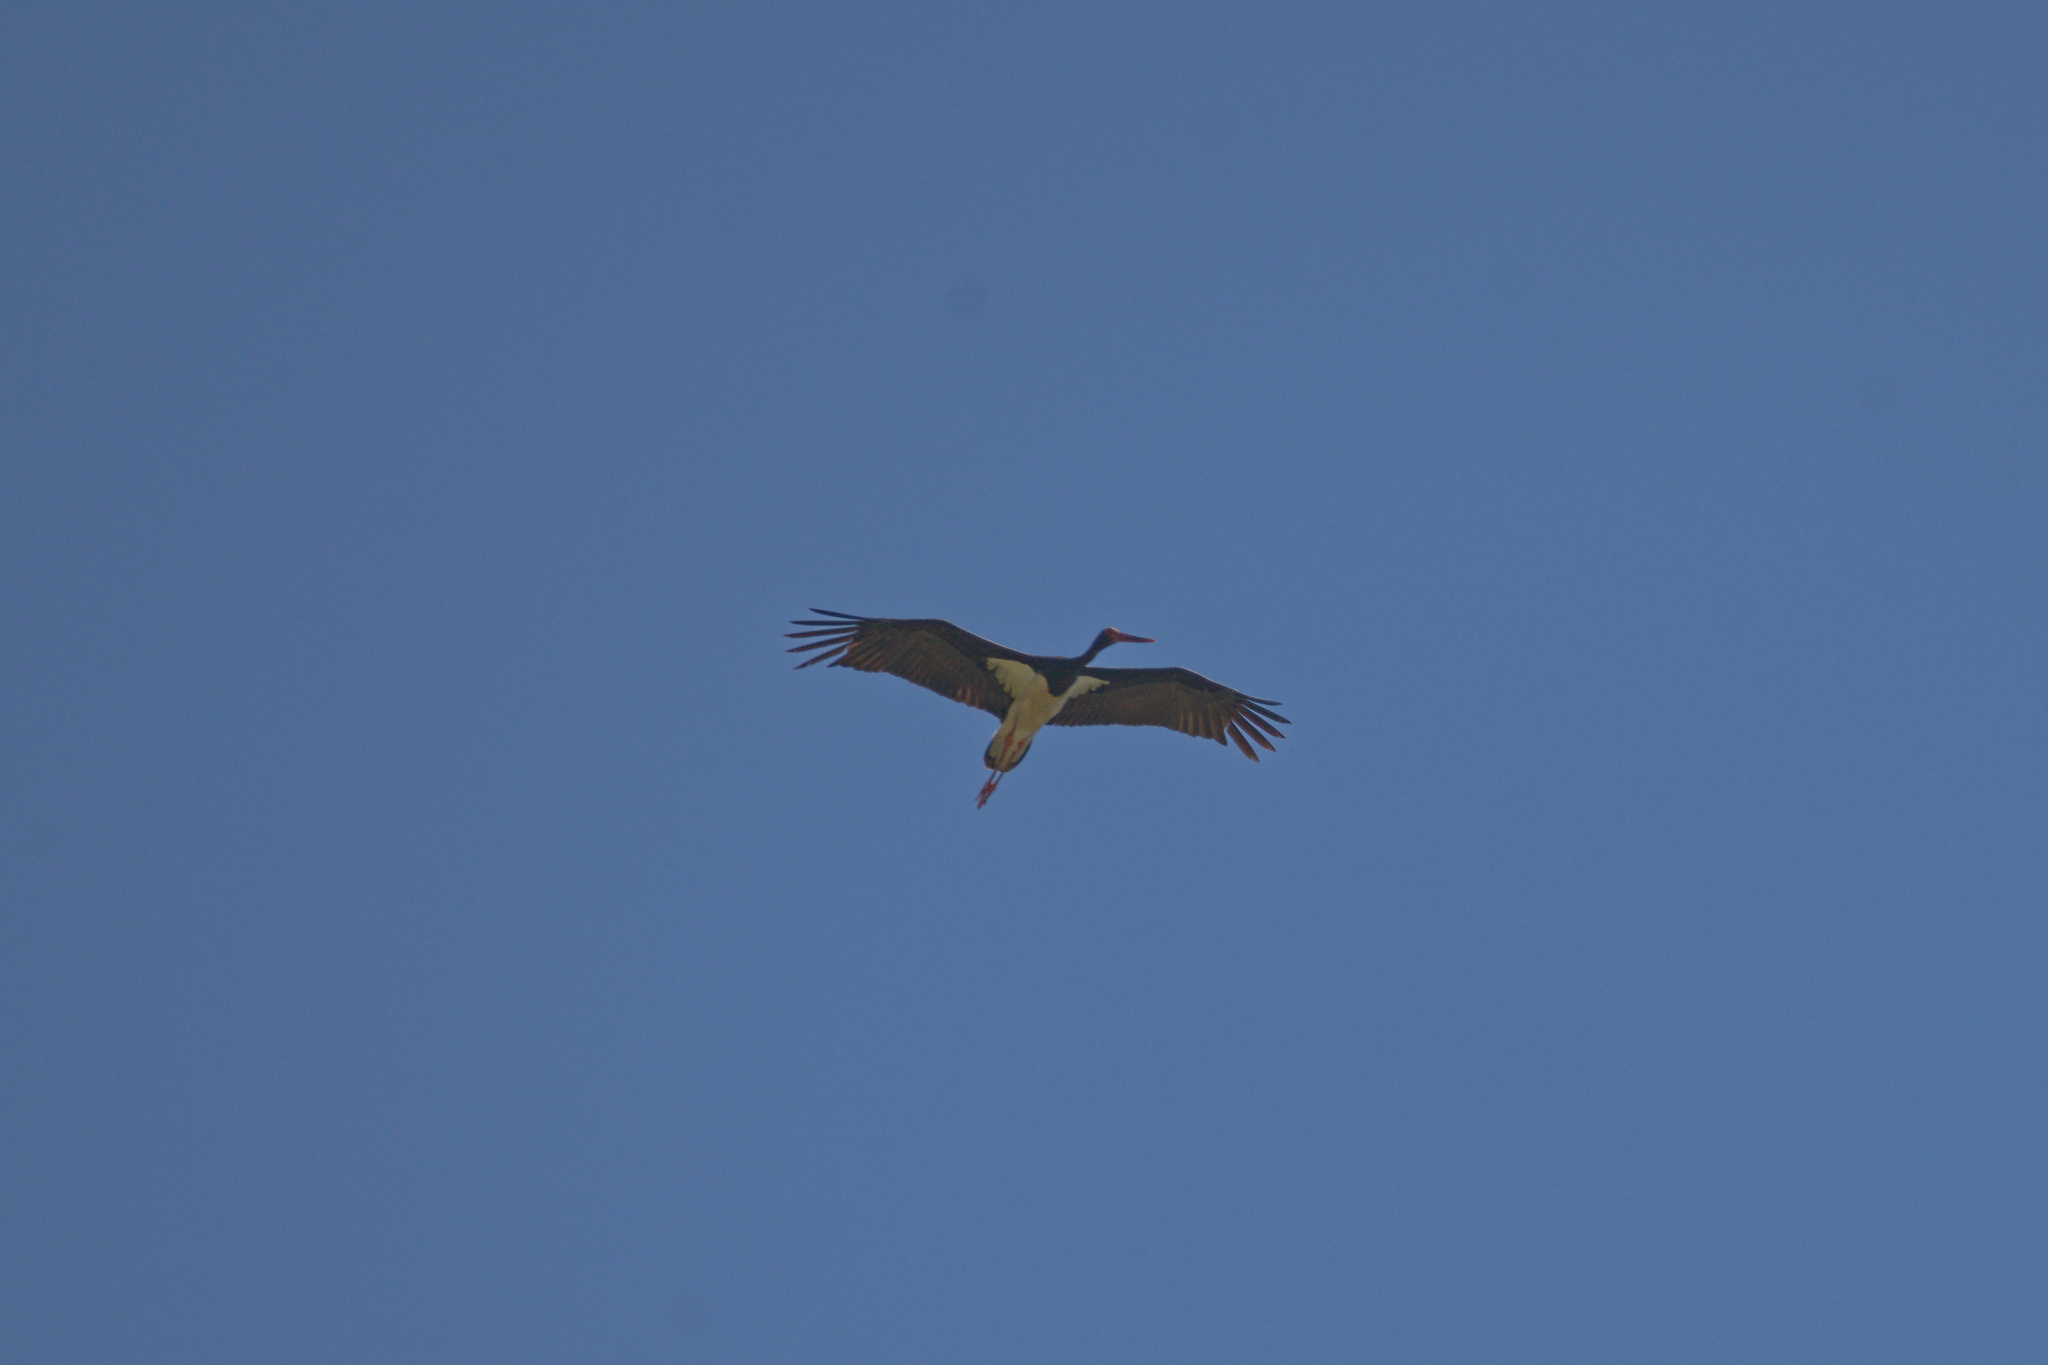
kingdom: Animalia
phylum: Chordata
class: Aves
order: Ciconiiformes
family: Ciconiidae
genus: Ciconia
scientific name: Ciconia nigra
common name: Black stork
